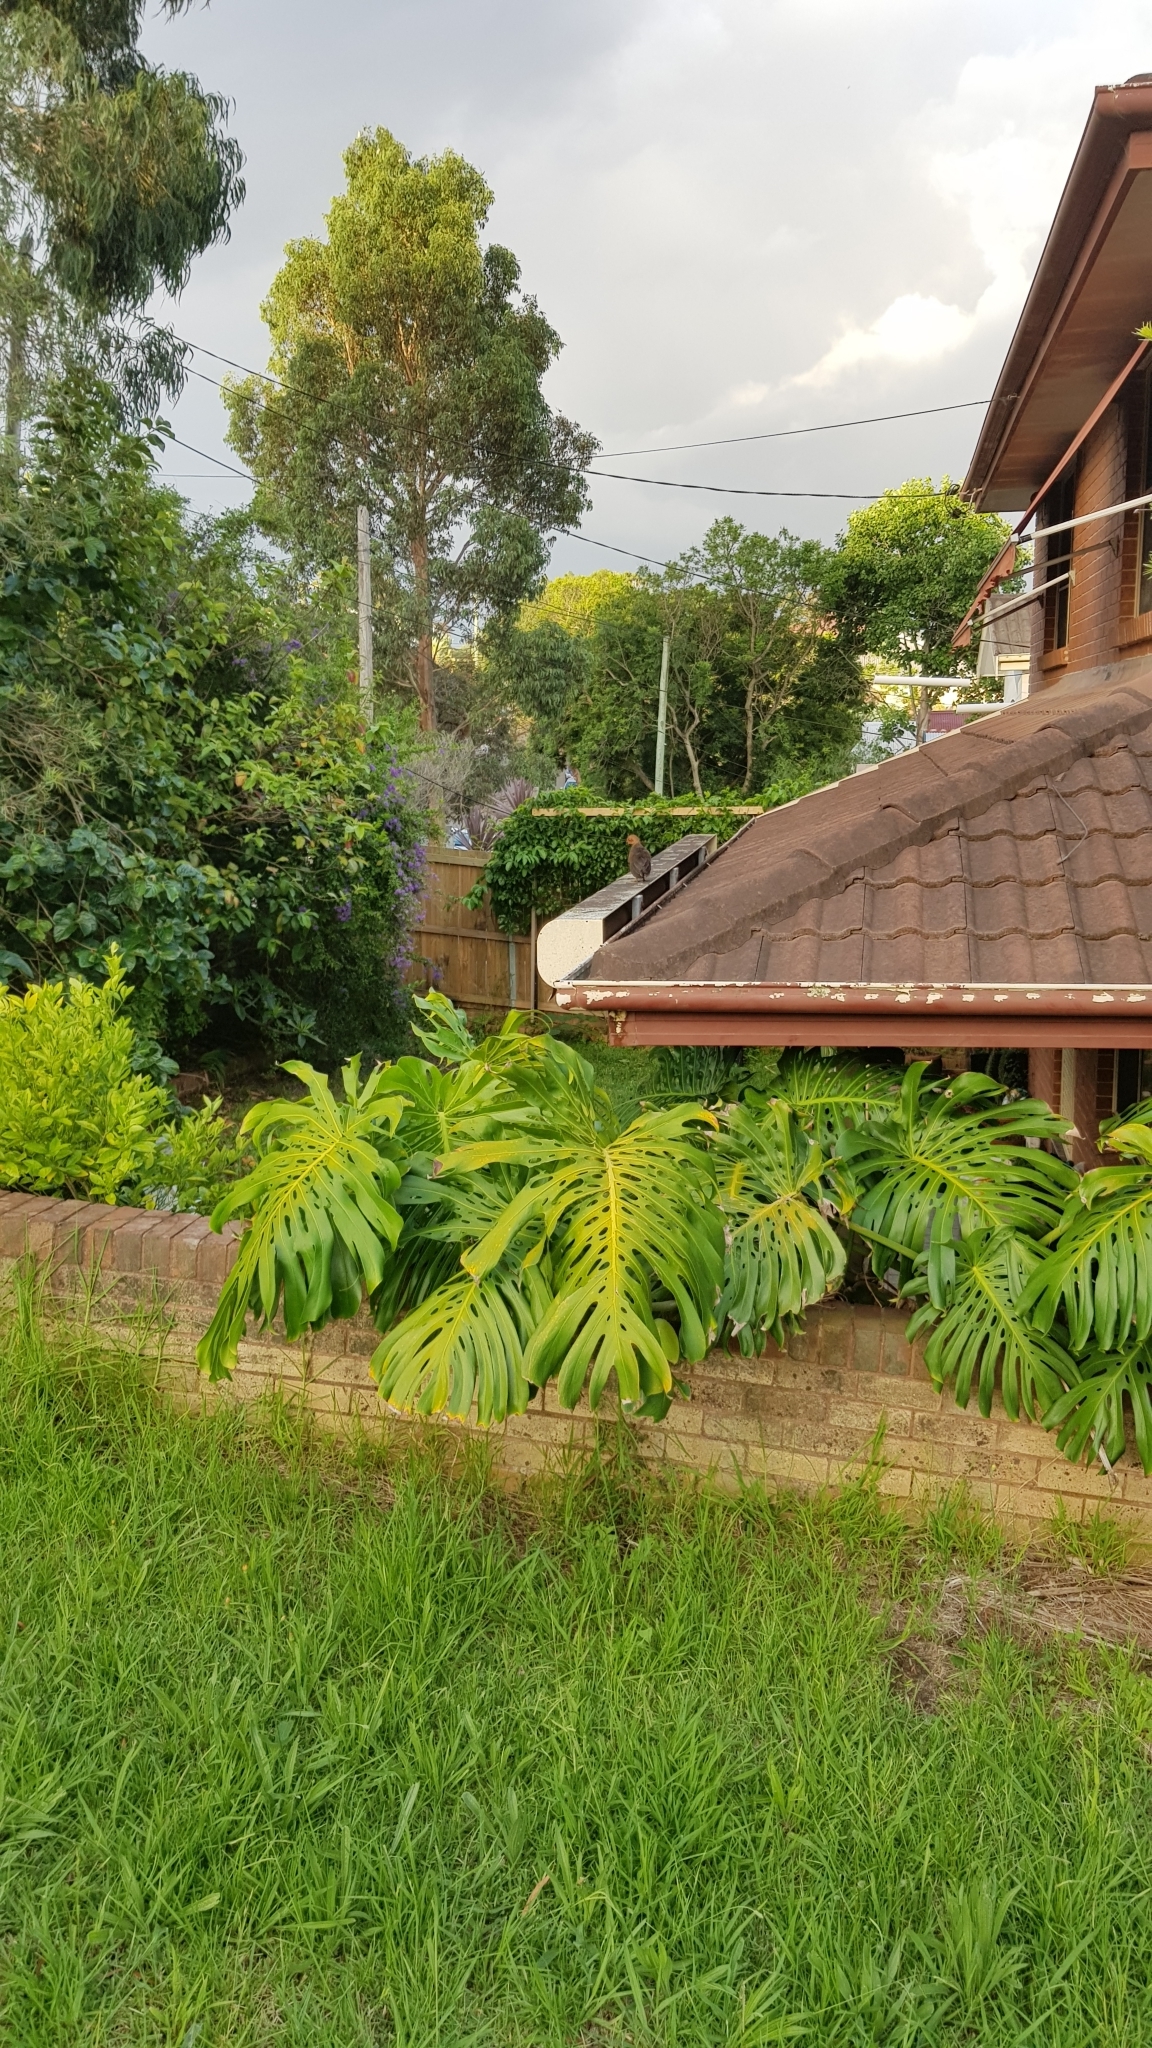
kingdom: Animalia
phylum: Chordata
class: Aves
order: Galliformes
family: Megapodiidae
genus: Alectura
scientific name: Alectura lathami
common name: Australian brushturkey
